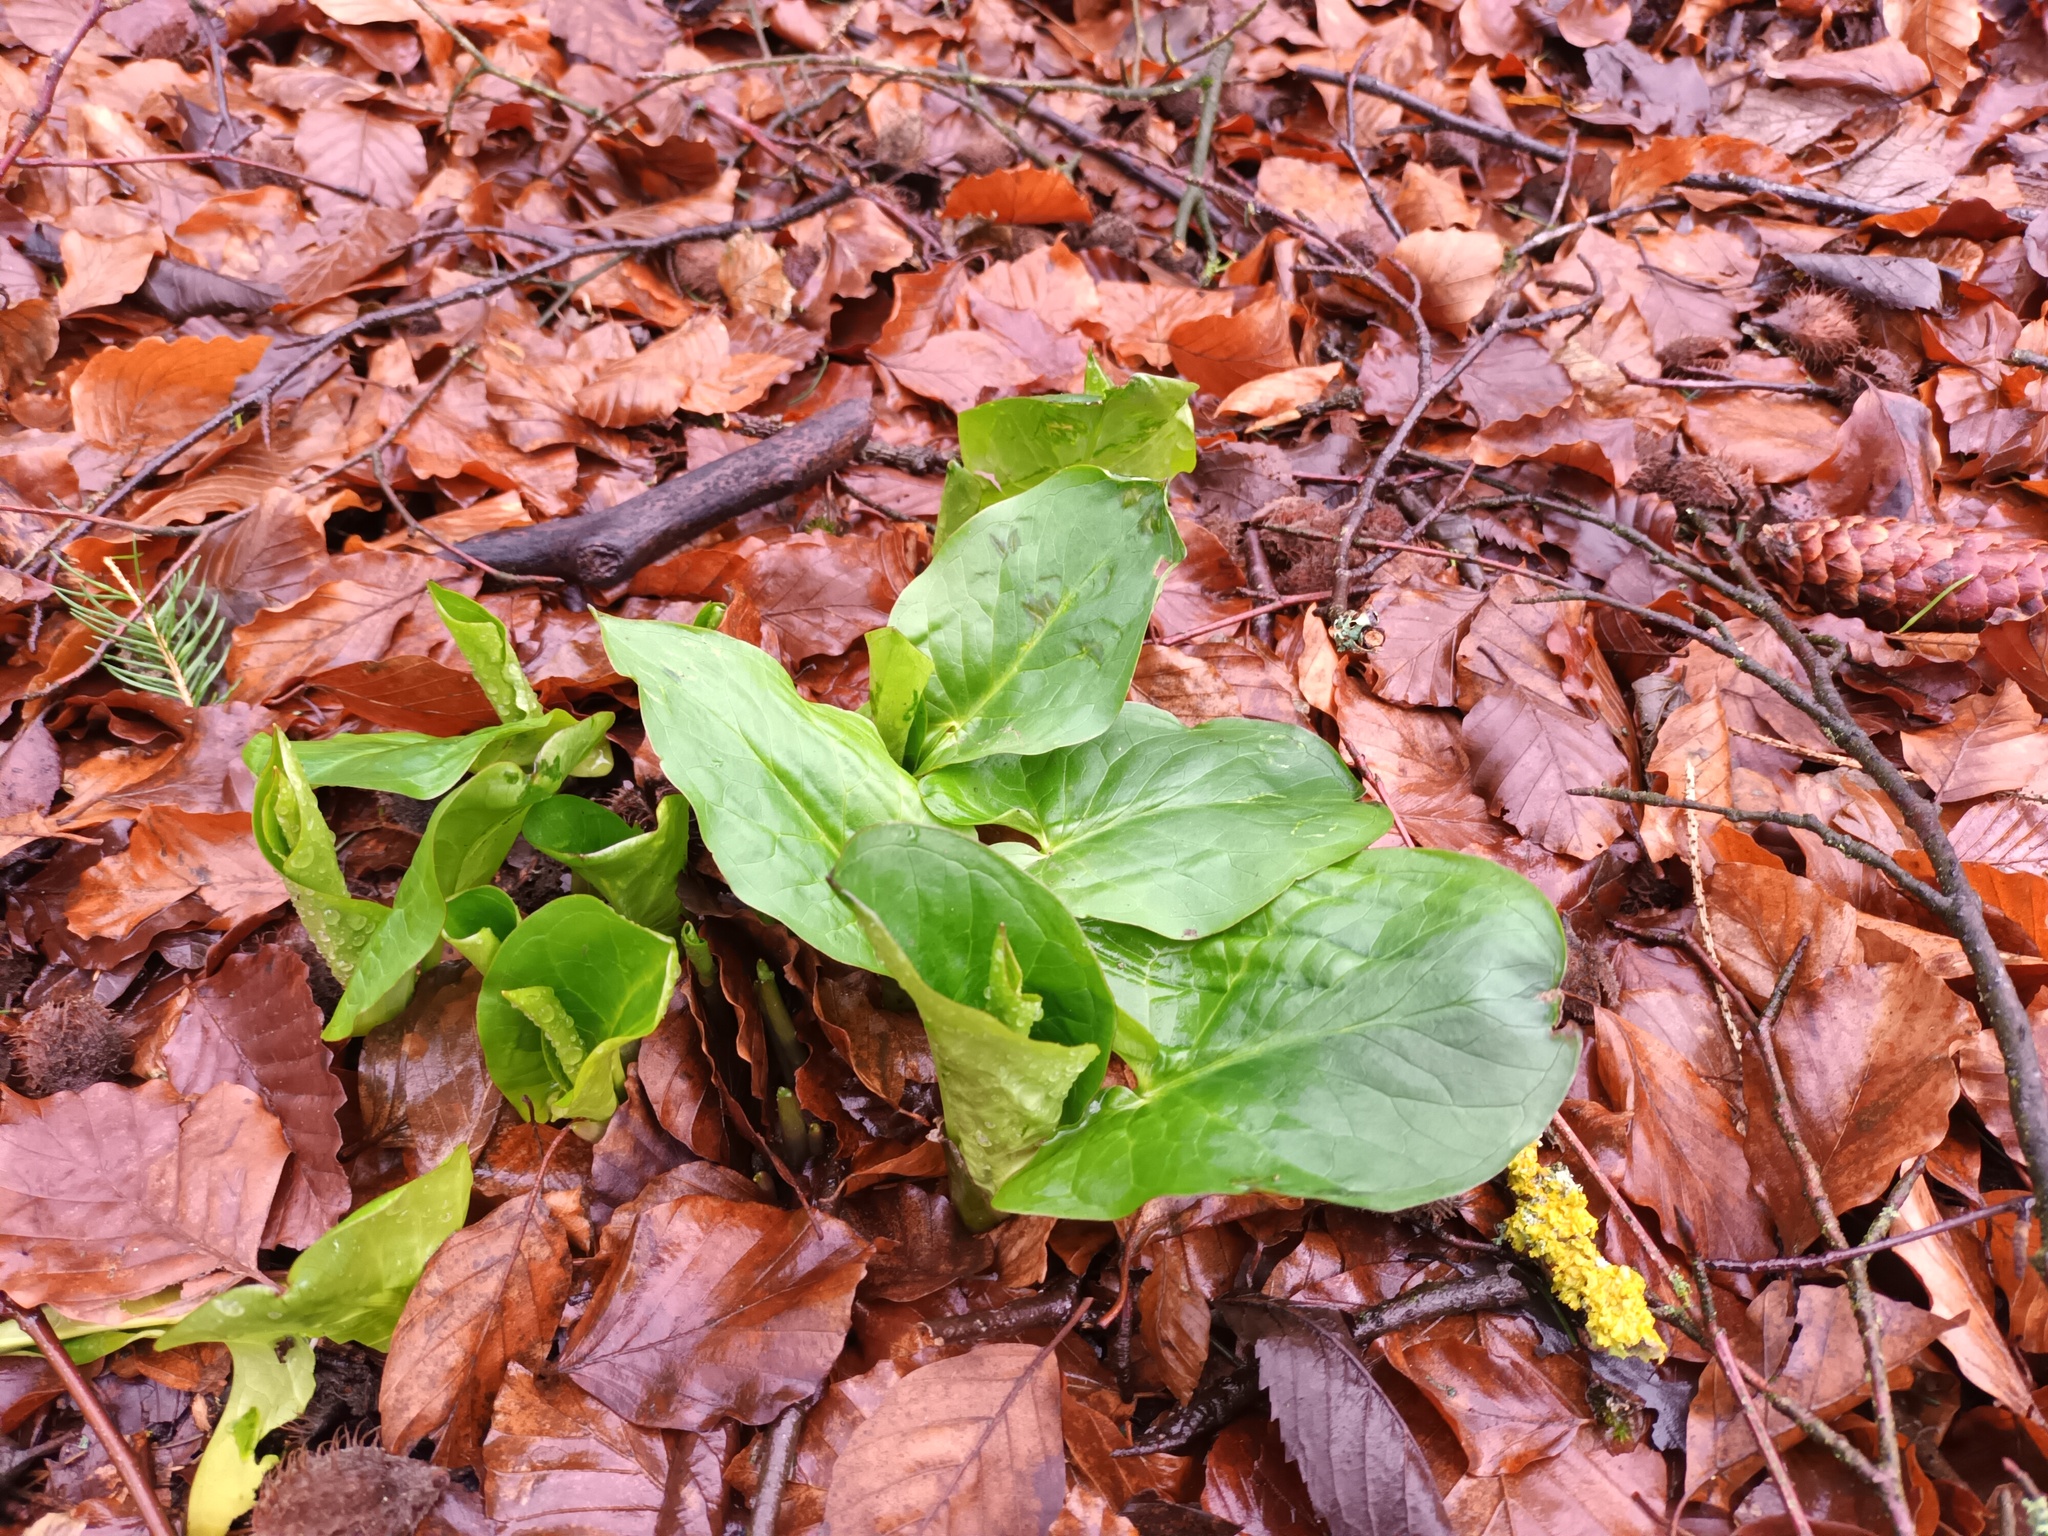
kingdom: Plantae
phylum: Tracheophyta
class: Liliopsida
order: Alismatales
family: Araceae
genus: Arum
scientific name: Arum maculatum
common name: Lords-and-ladies
